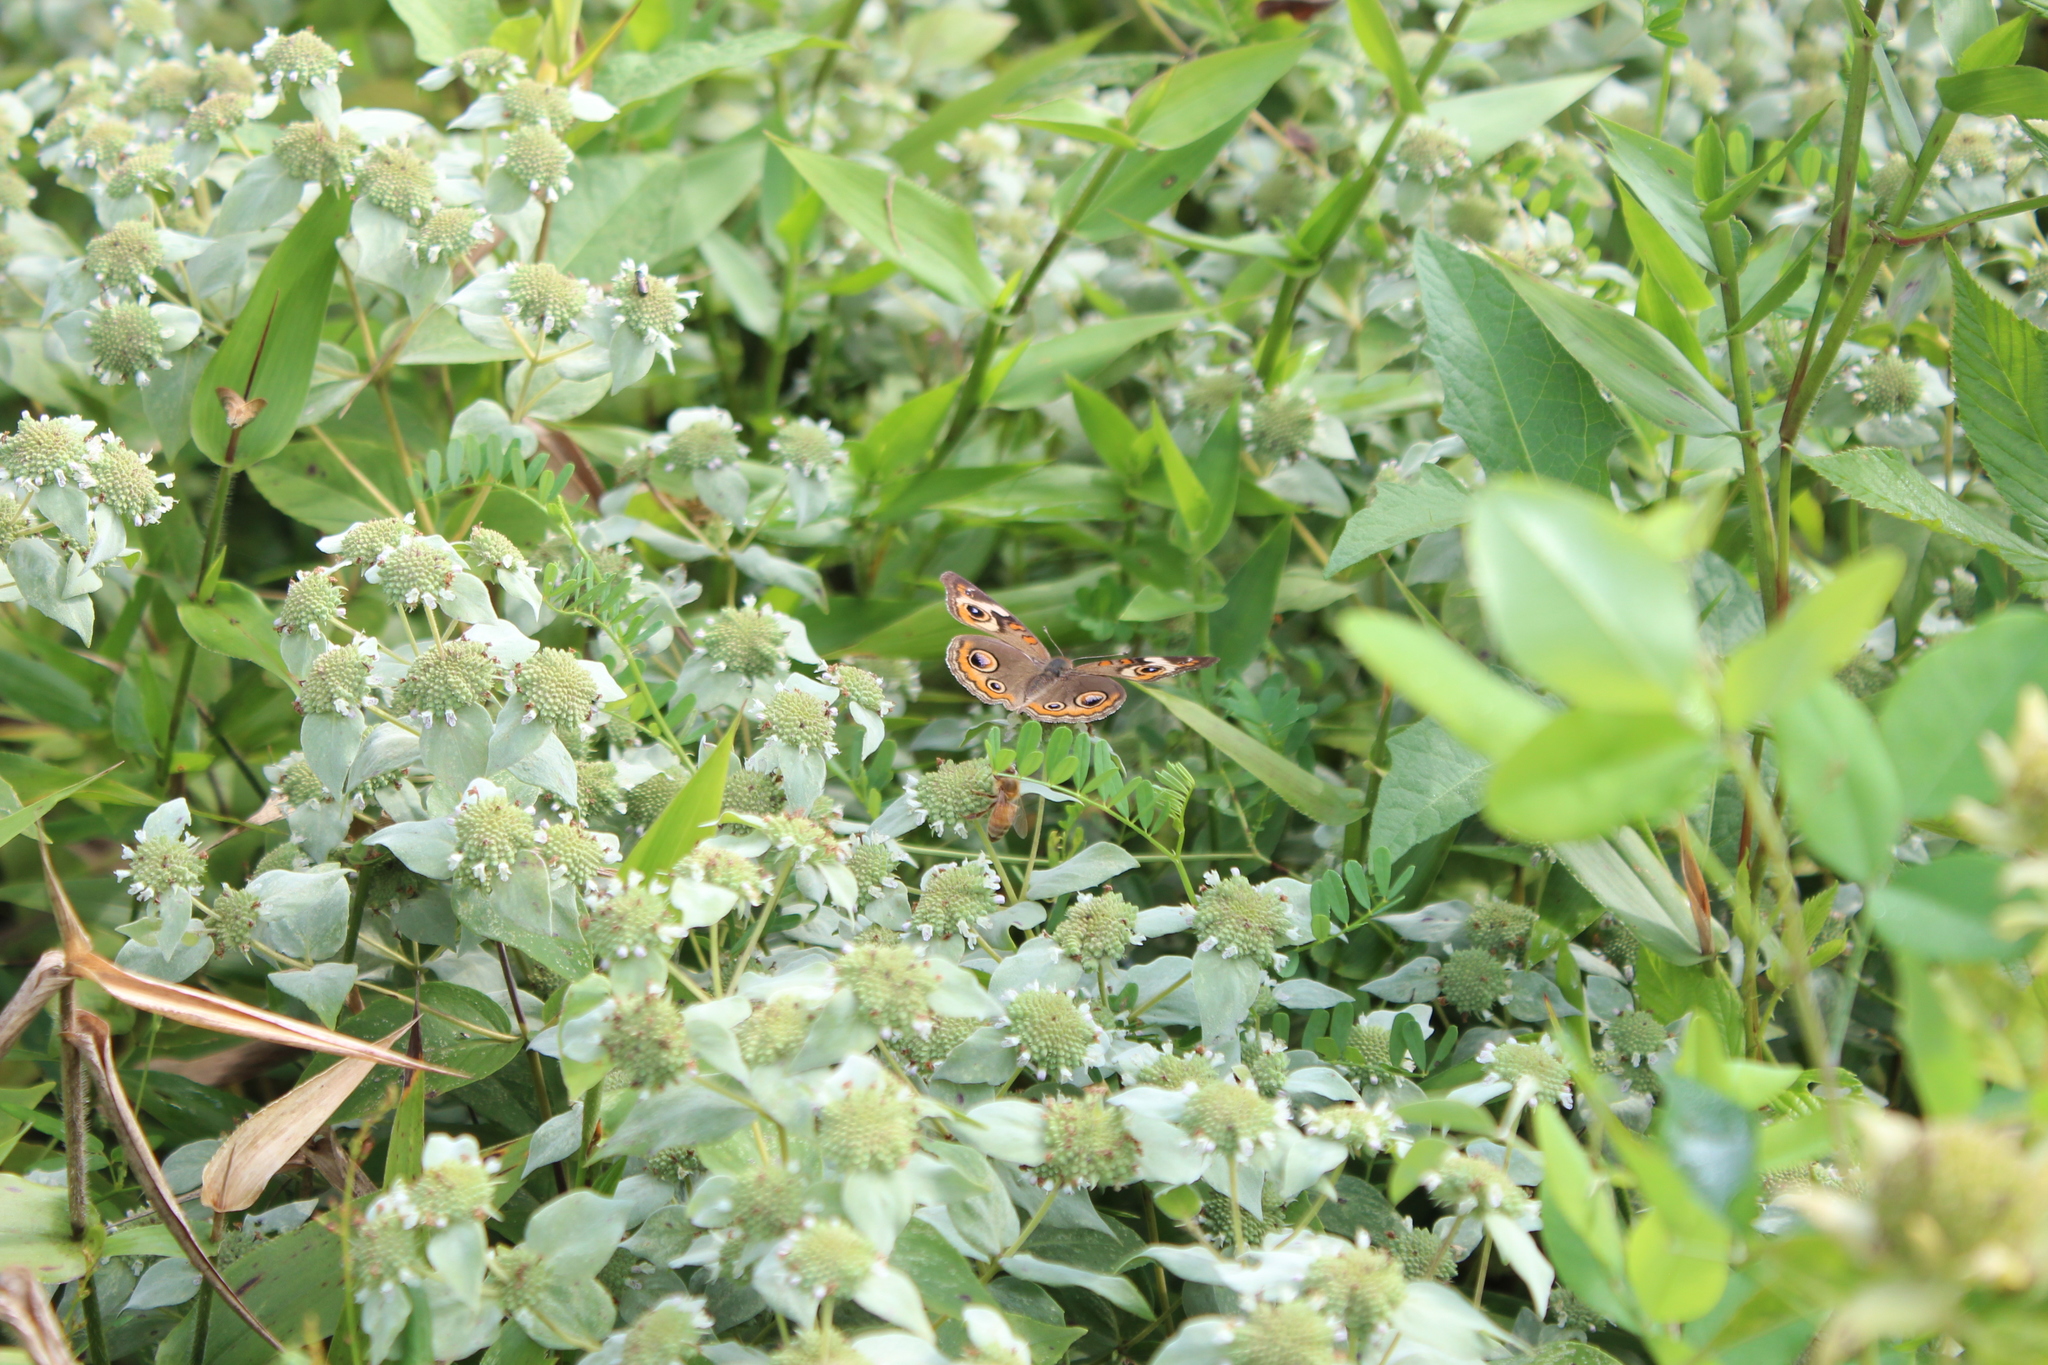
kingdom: Animalia
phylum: Arthropoda
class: Insecta
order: Lepidoptera
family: Nymphalidae
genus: Junonia
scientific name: Junonia coenia
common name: Common buckeye
